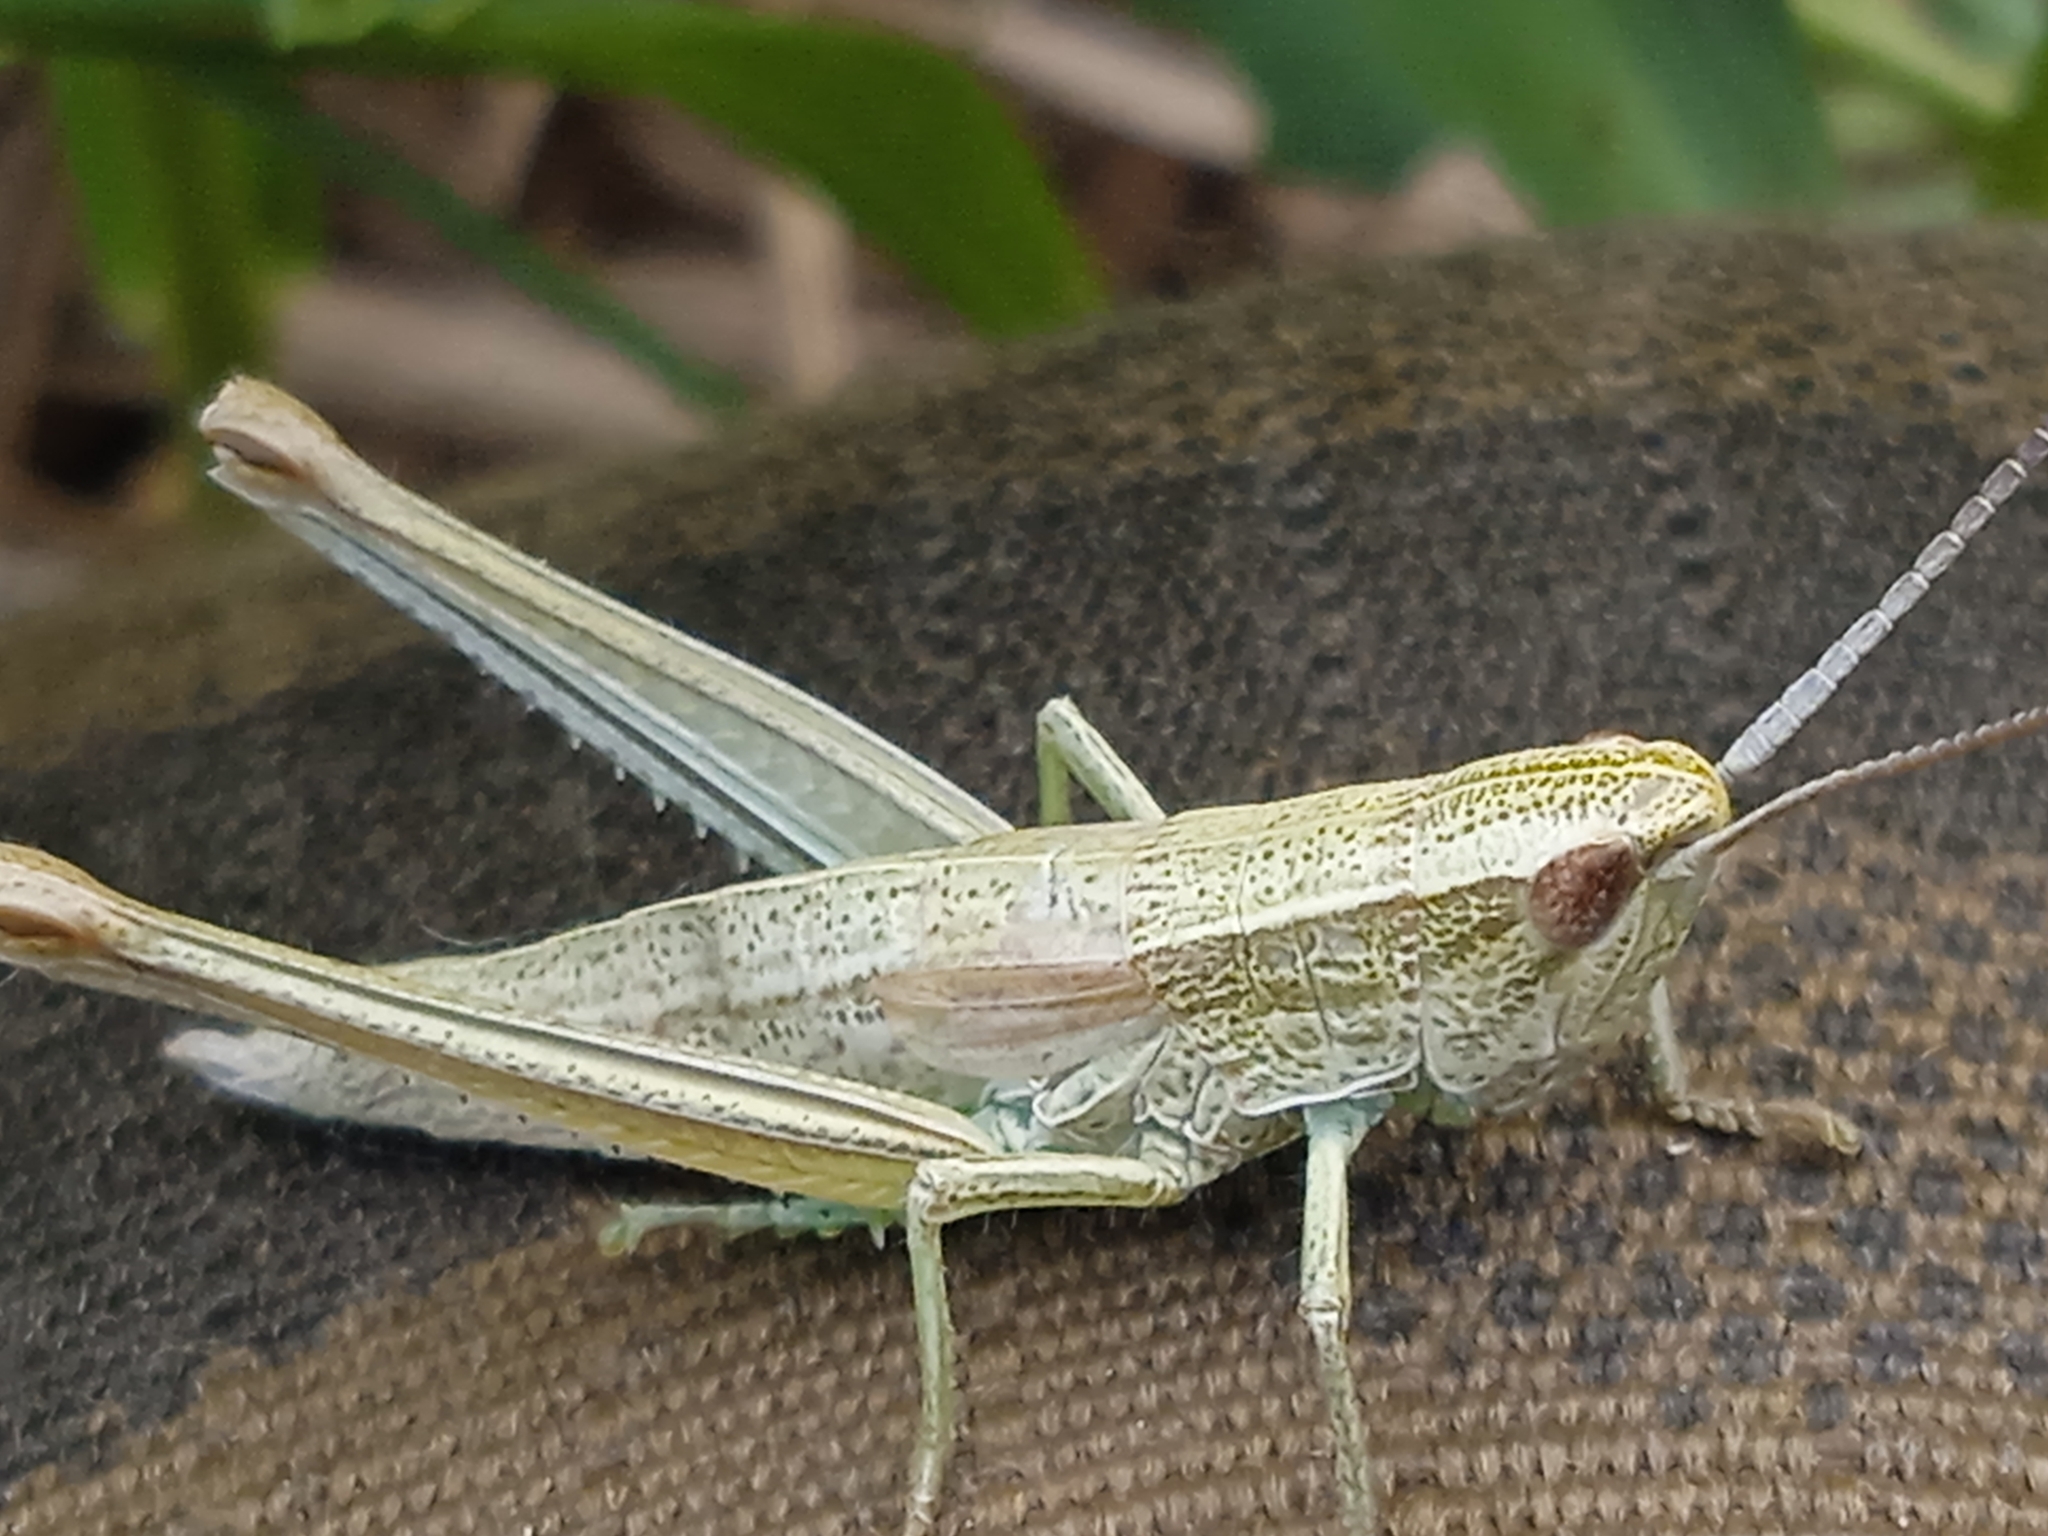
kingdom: Animalia
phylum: Arthropoda
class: Insecta
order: Orthoptera
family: Acrididae
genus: Chrysochraon
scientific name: Chrysochraon dispar
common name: Large gold grasshopper
